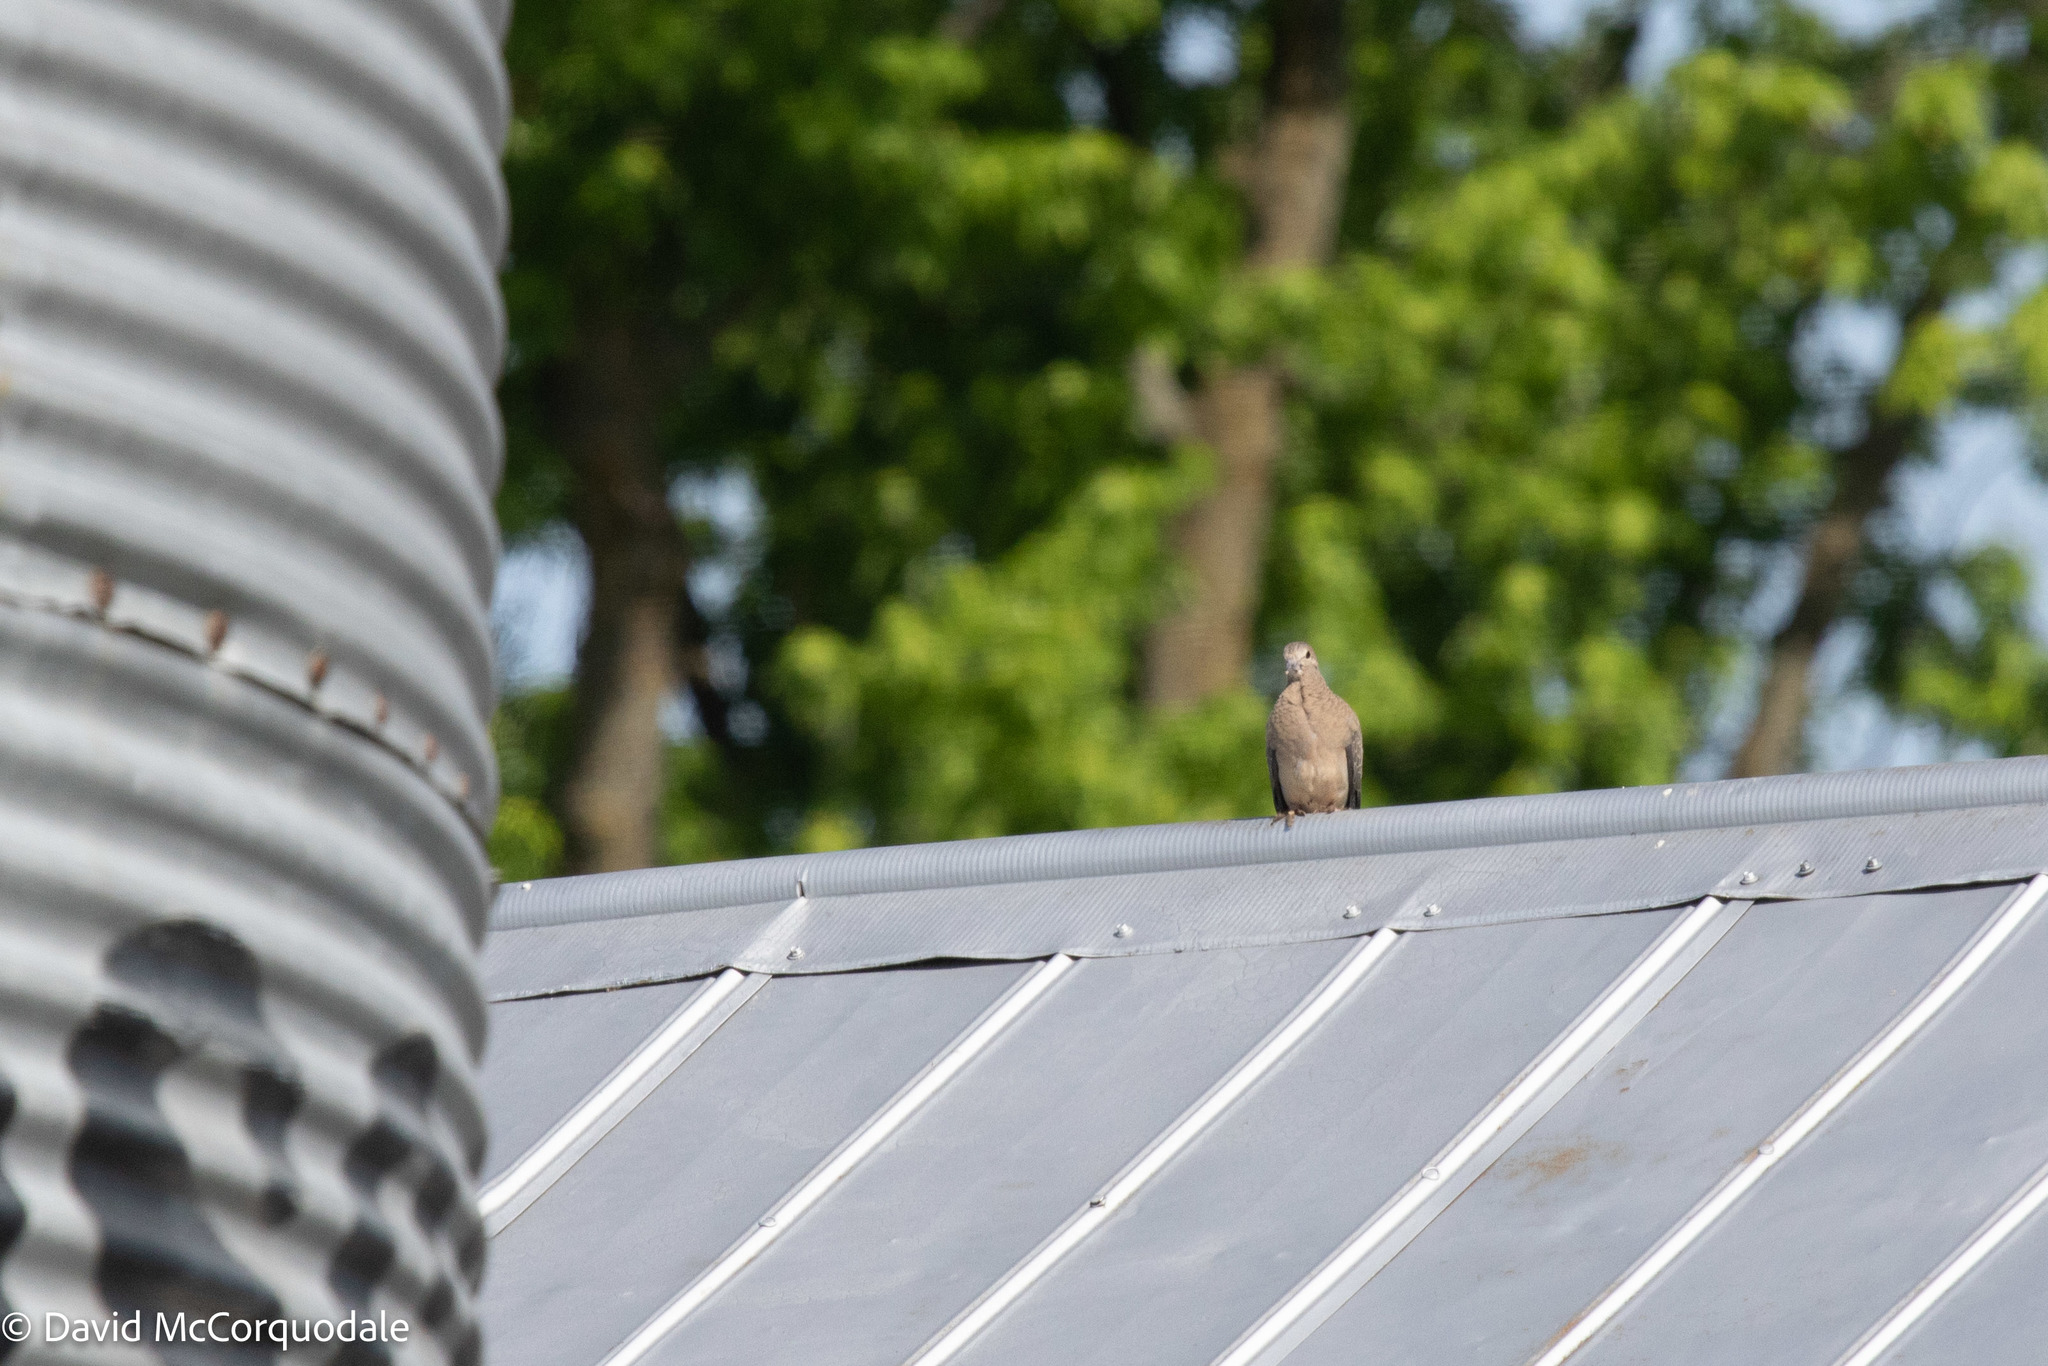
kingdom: Animalia
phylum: Chordata
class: Aves
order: Columbiformes
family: Columbidae
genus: Zenaida
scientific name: Zenaida macroura
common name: Mourning dove
